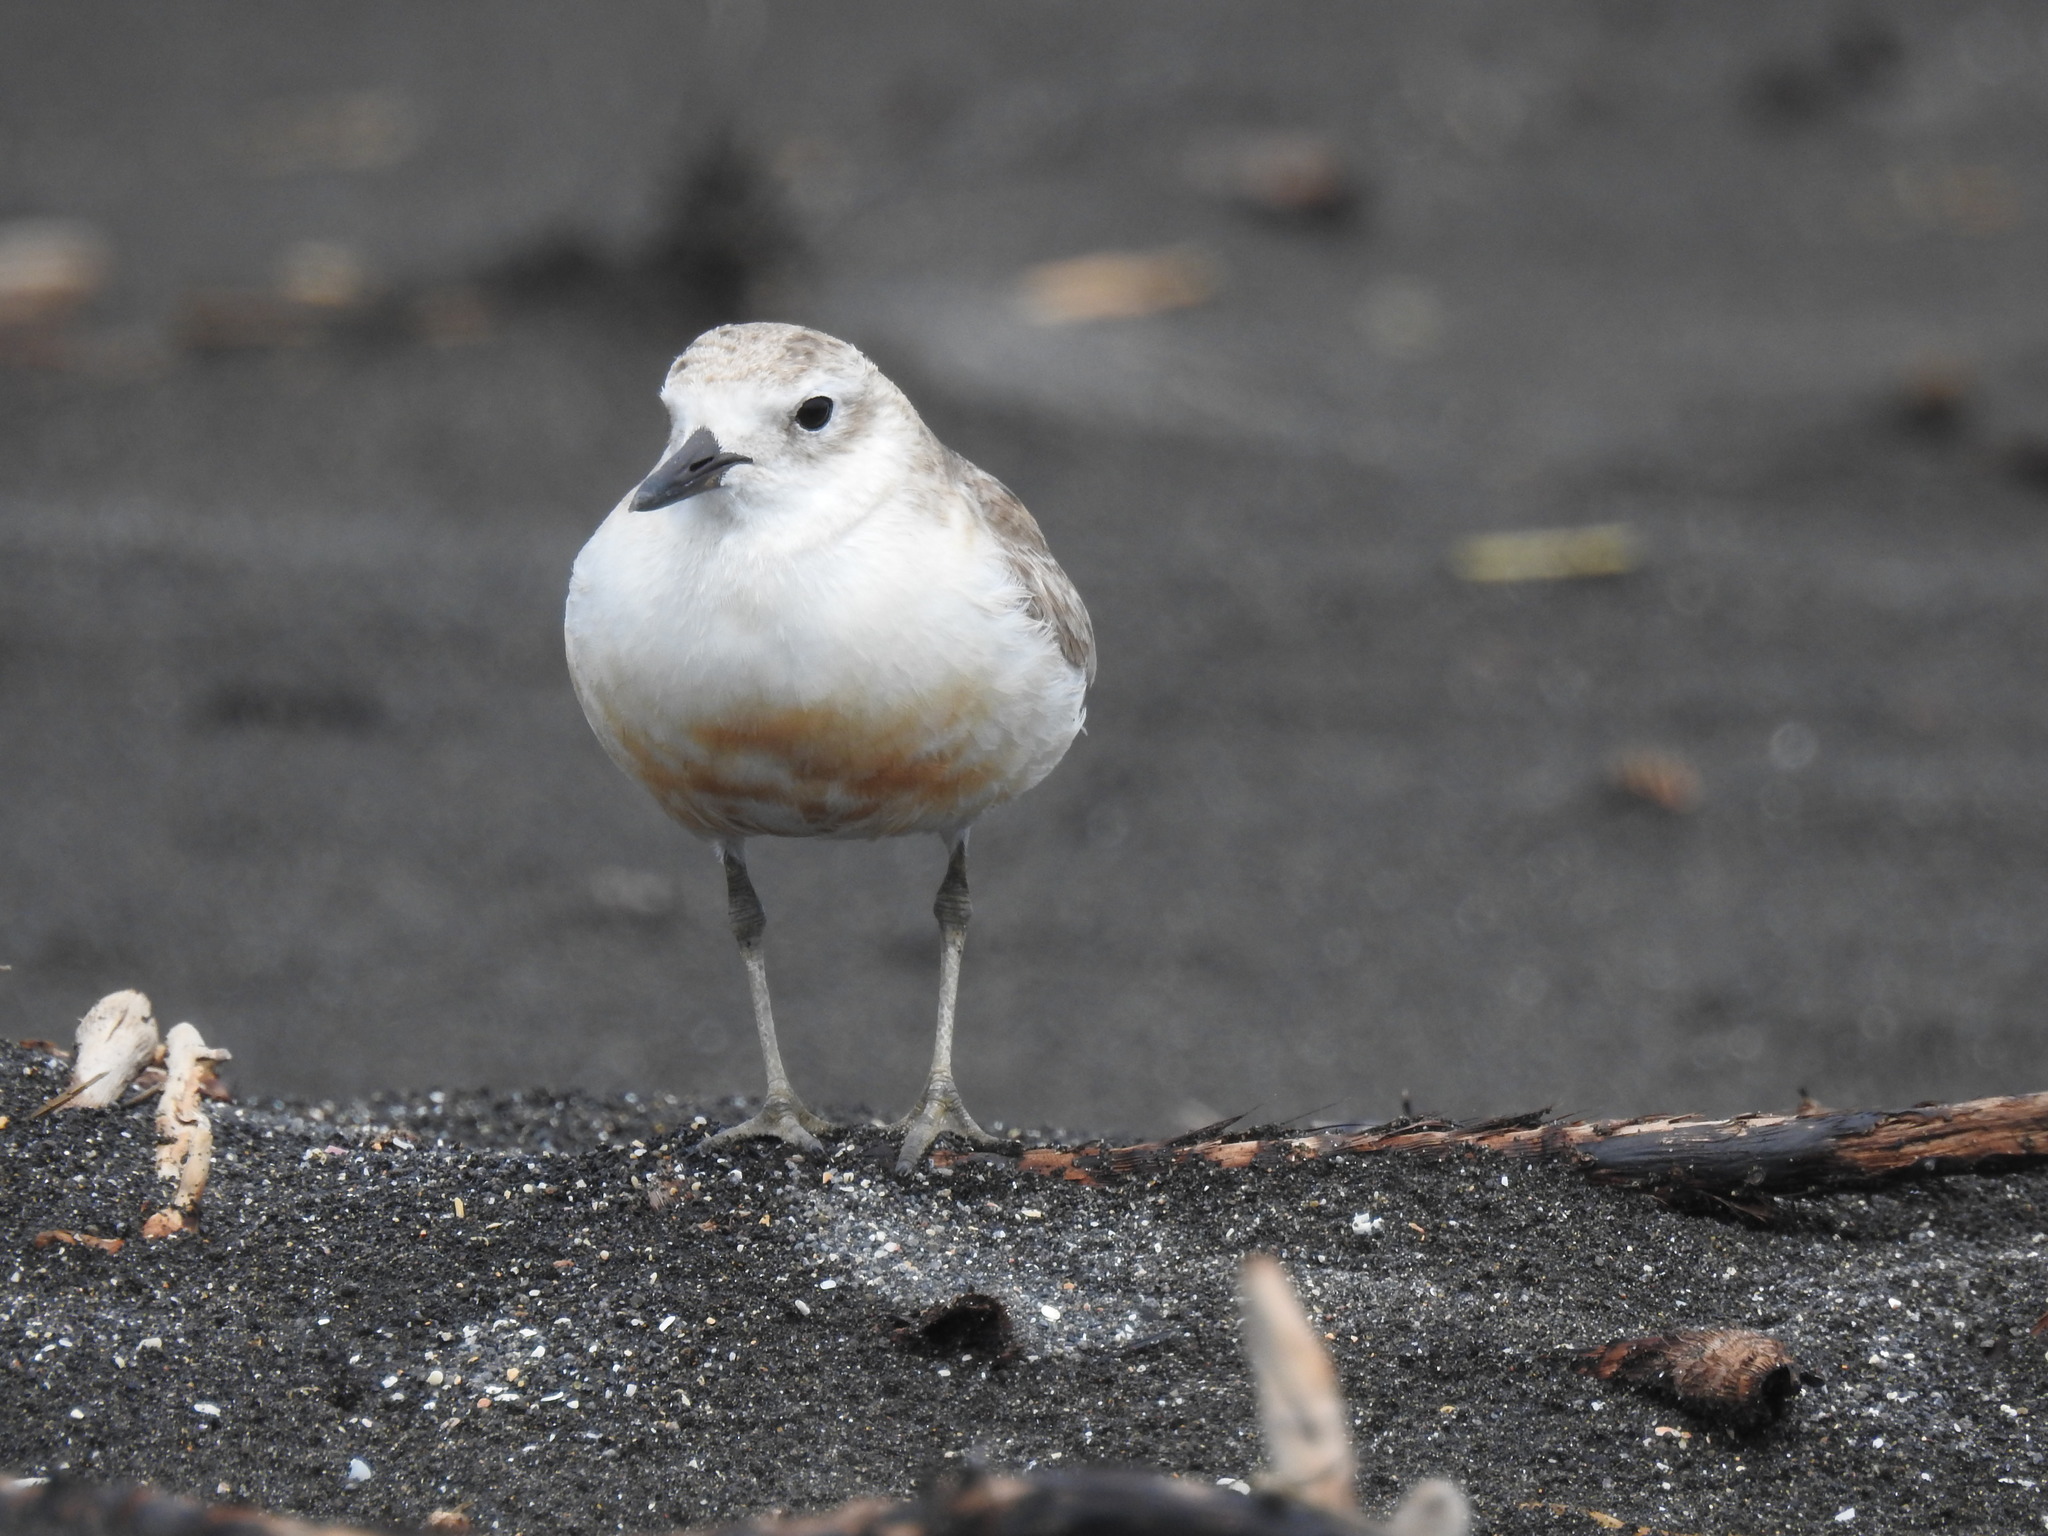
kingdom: Animalia
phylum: Chordata
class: Aves
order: Charadriiformes
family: Charadriidae
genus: Anarhynchus
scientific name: Anarhynchus
